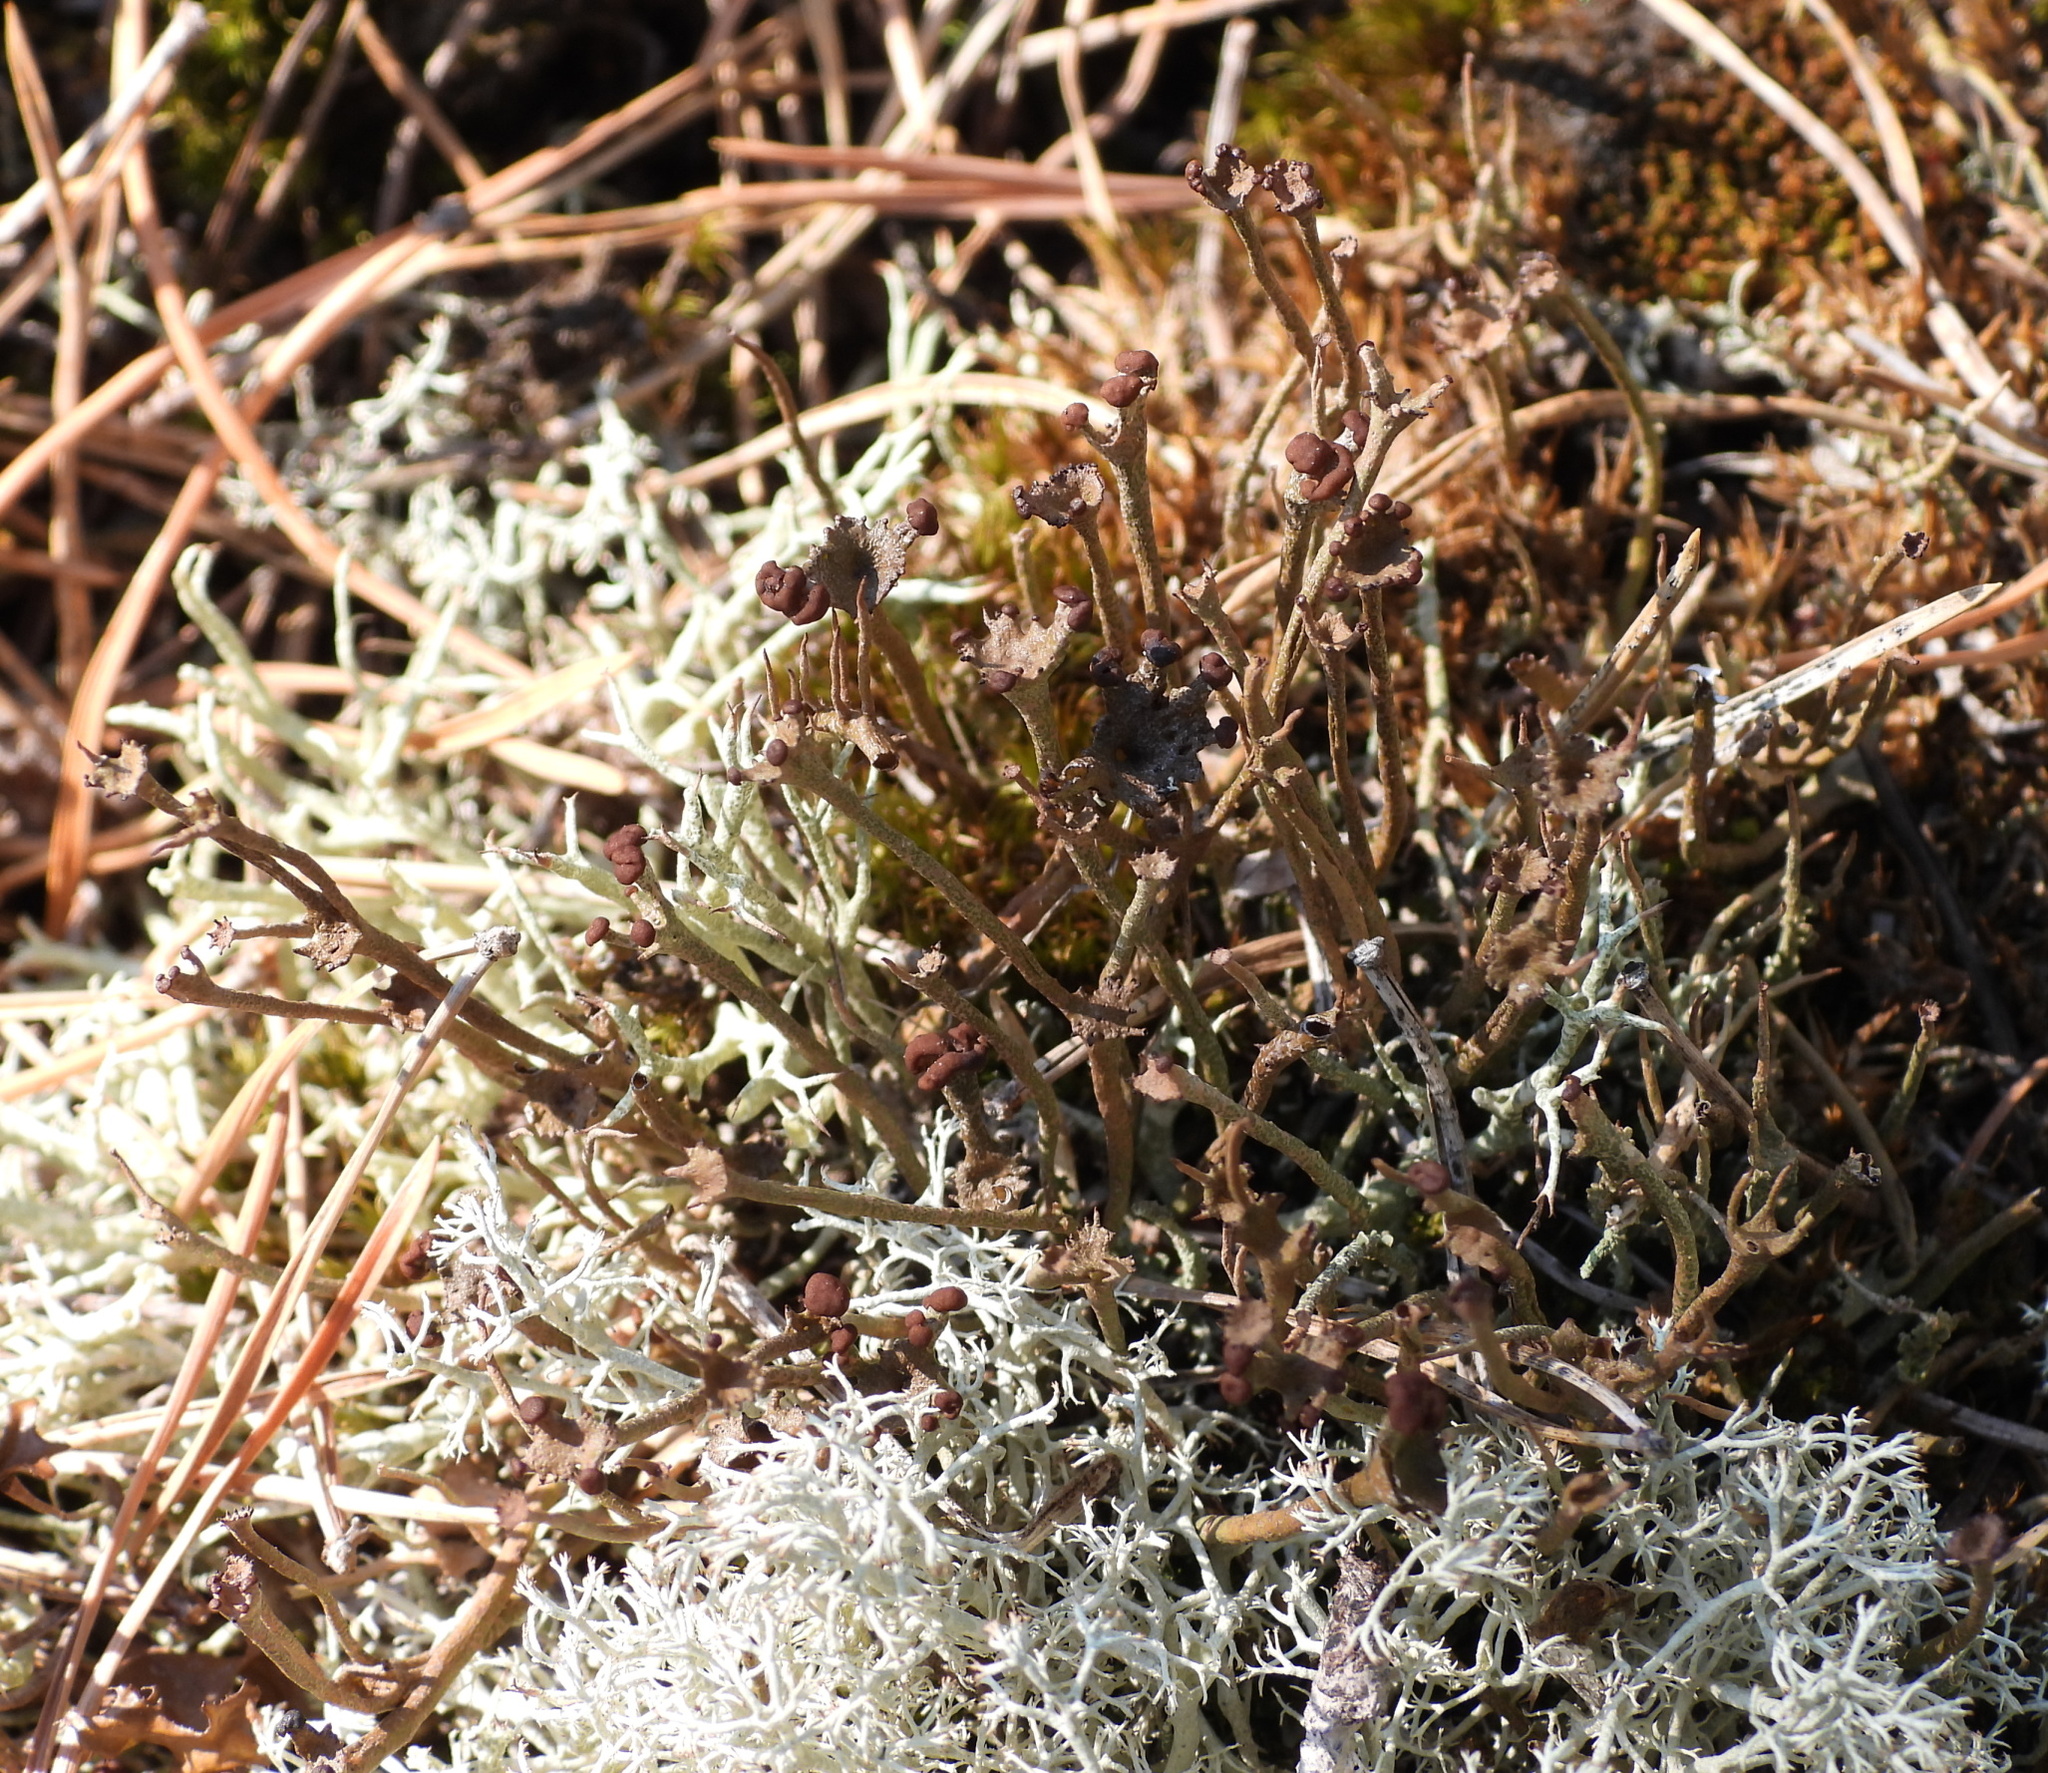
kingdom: Fungi
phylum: Ascomycota
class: Lecanoromycetes
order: Lecanorales
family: Cladoniaceae
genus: Cladonia
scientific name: Cladonia gracilis
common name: Smooth clad lichen
